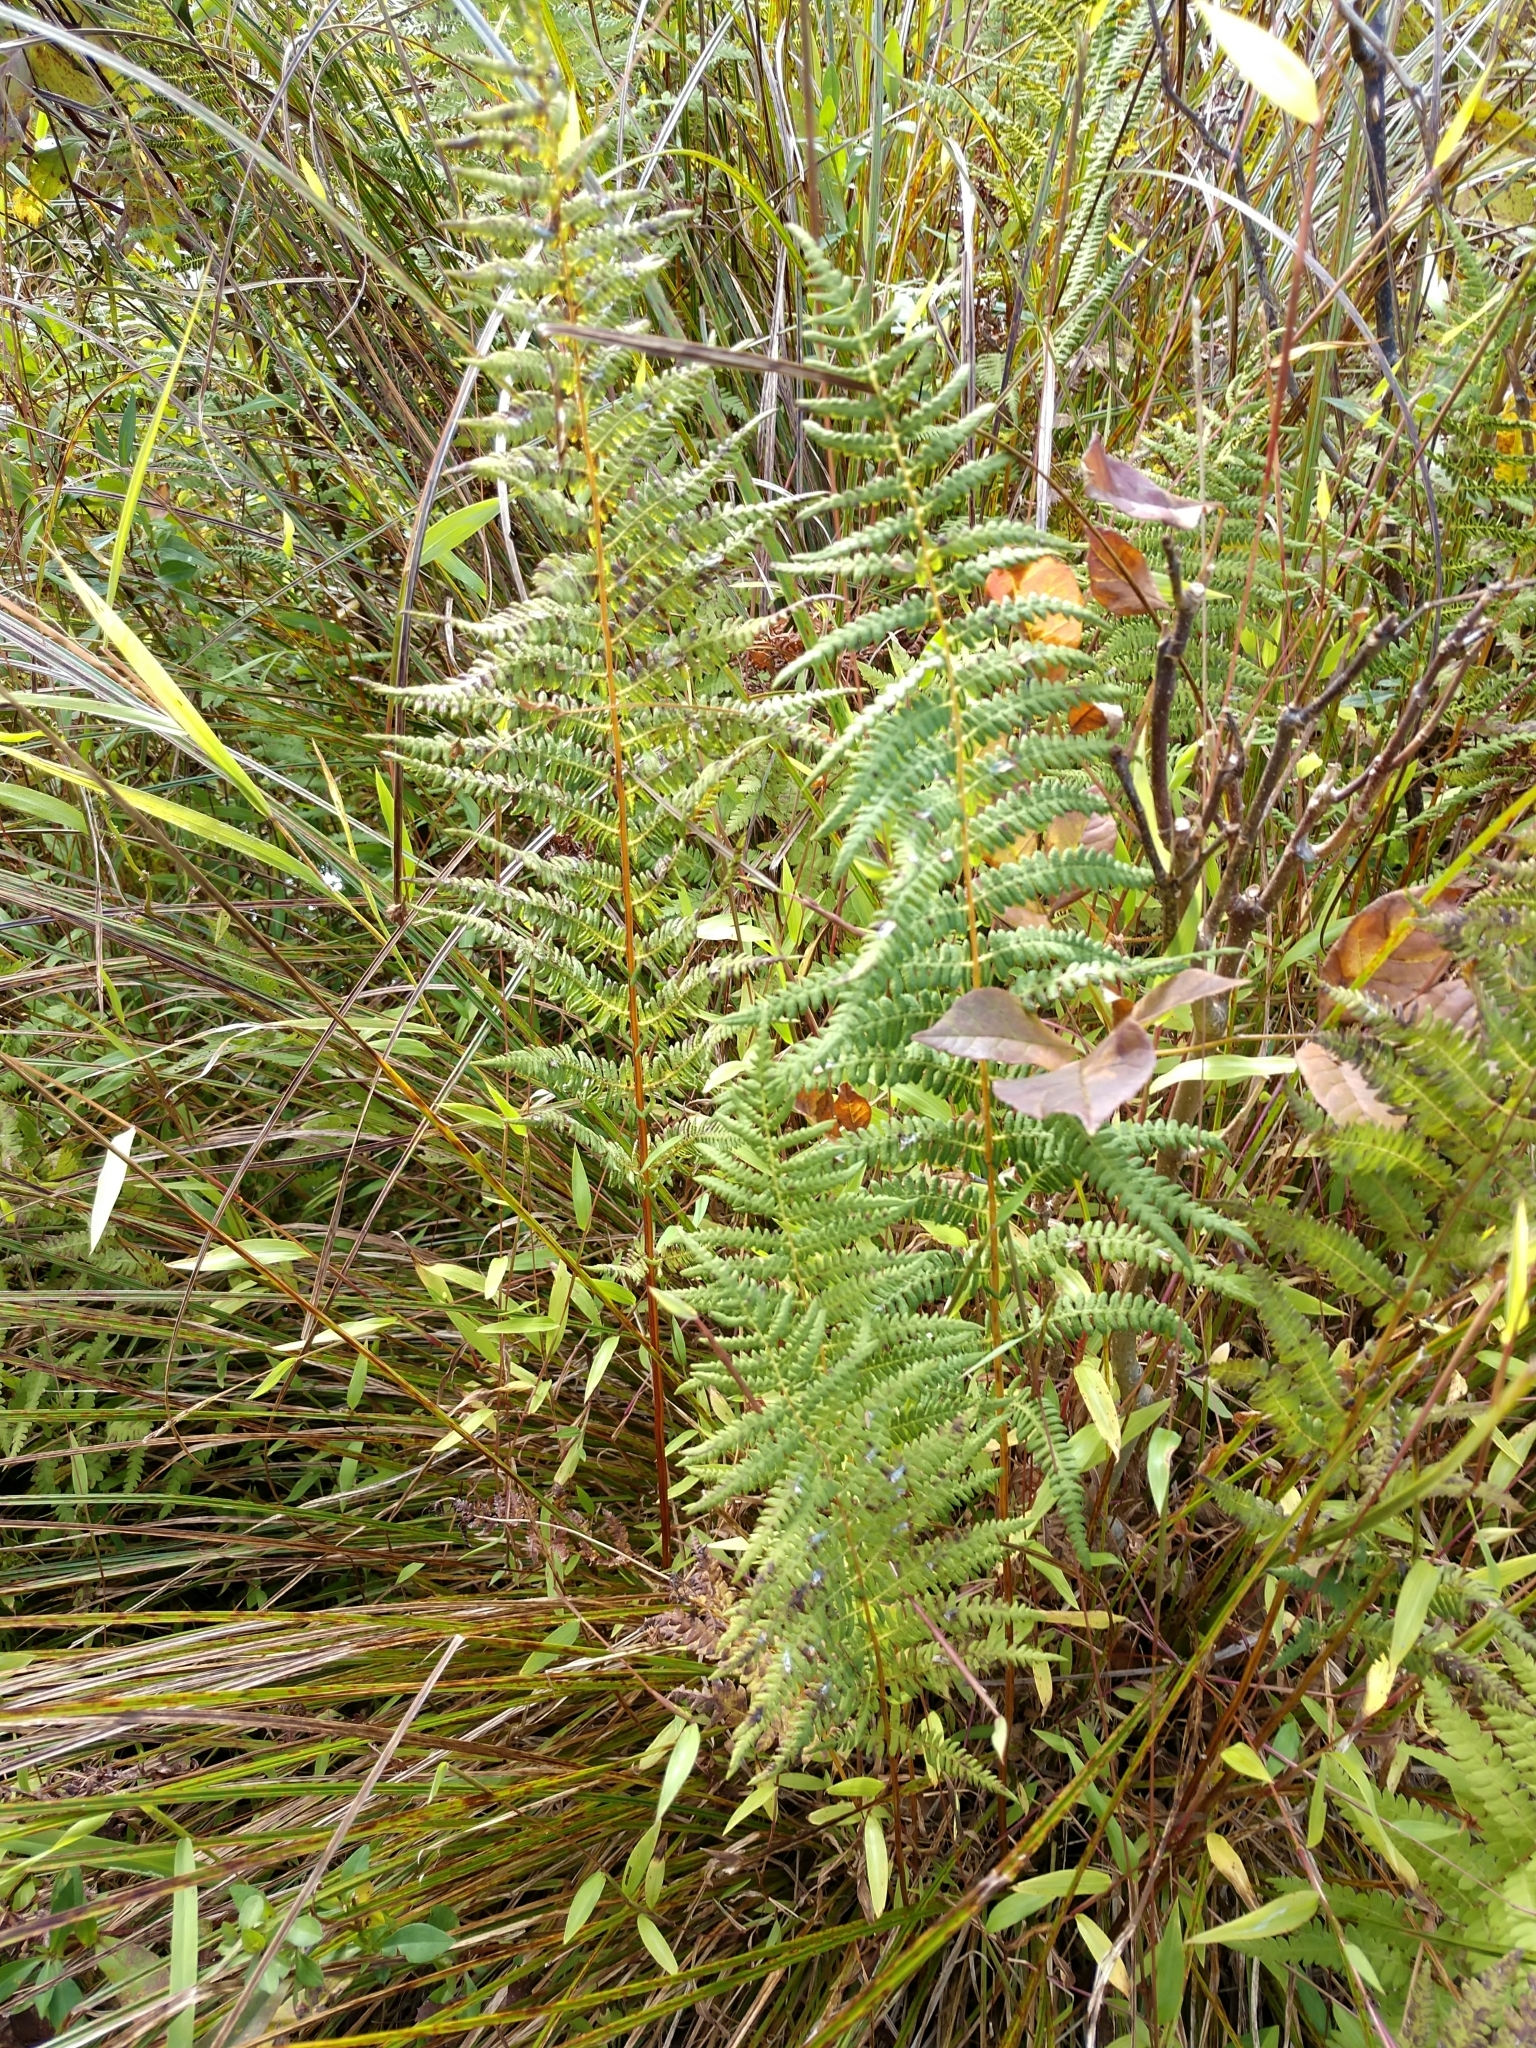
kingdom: Plantae
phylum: Tracheophyta
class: Polypodiopsida
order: Polypodiales
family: Thelypteridaceae
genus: Thelypteris
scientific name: Thelypteris palustris
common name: Marsh fern
